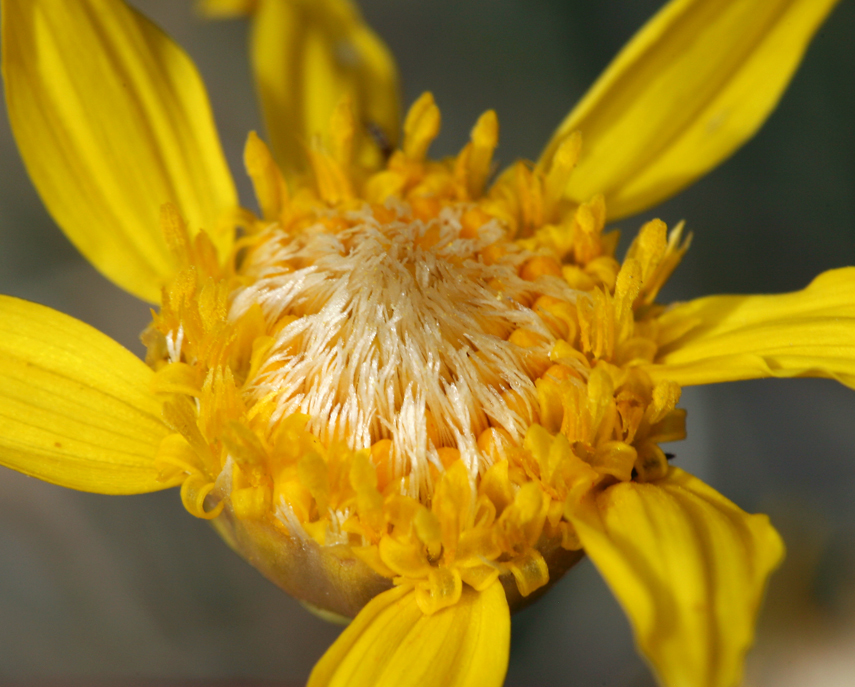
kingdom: Plantae
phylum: Tracheophyta
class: Magnoliopsida
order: Asterales
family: Asteraceae
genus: Acamptopappus
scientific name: Acamptopappus shockleyi
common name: Shockley's goldenhead
